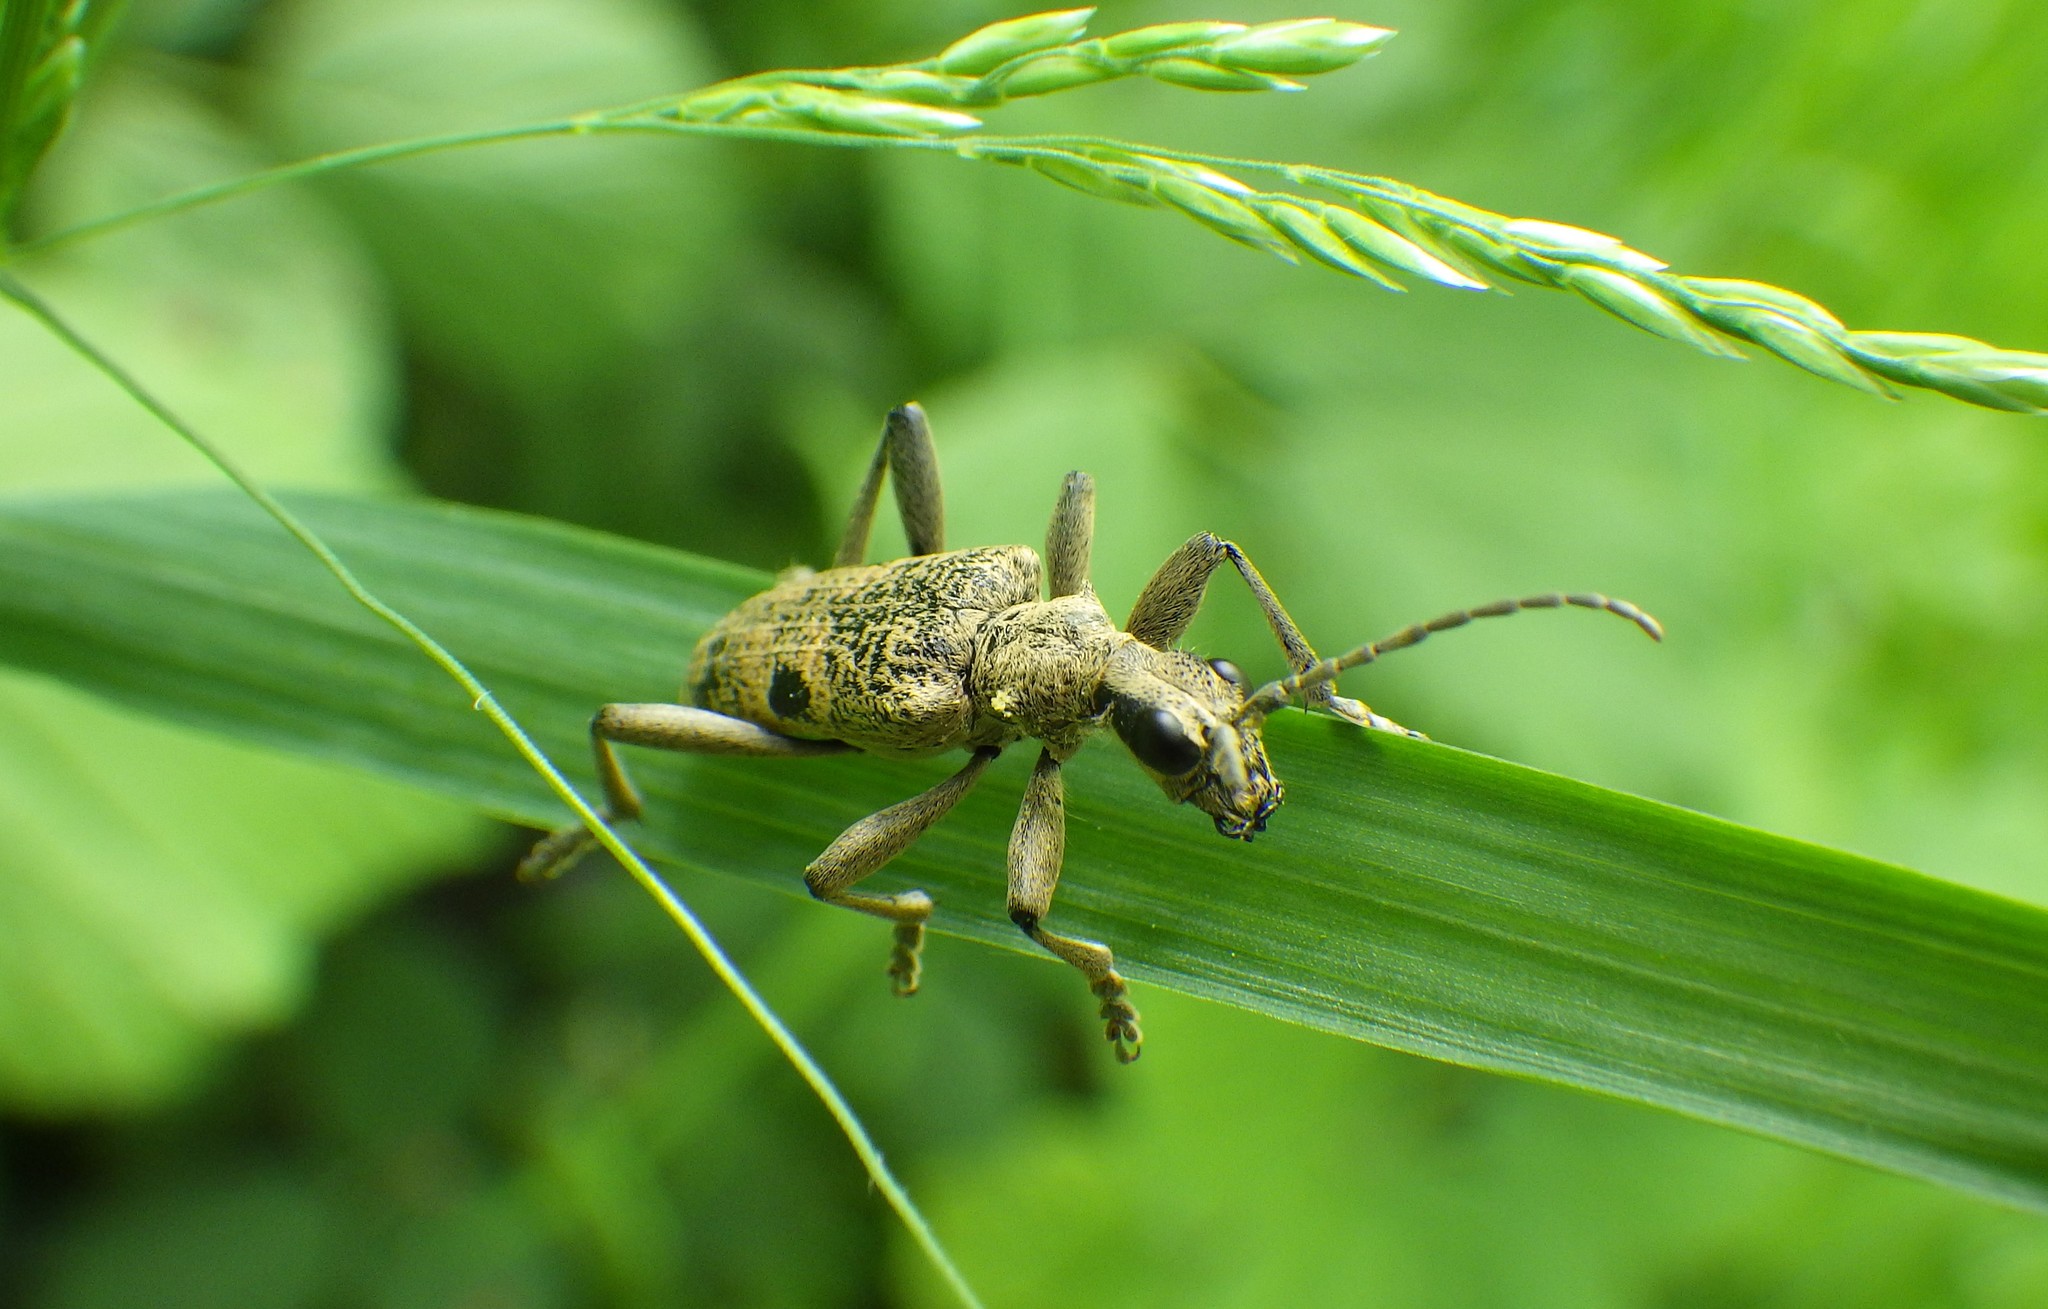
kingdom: Animalia
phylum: Arthropoda
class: Insecta
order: Coleoptera
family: Cerambycidae
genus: Rhagium
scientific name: Rhagium mordax
